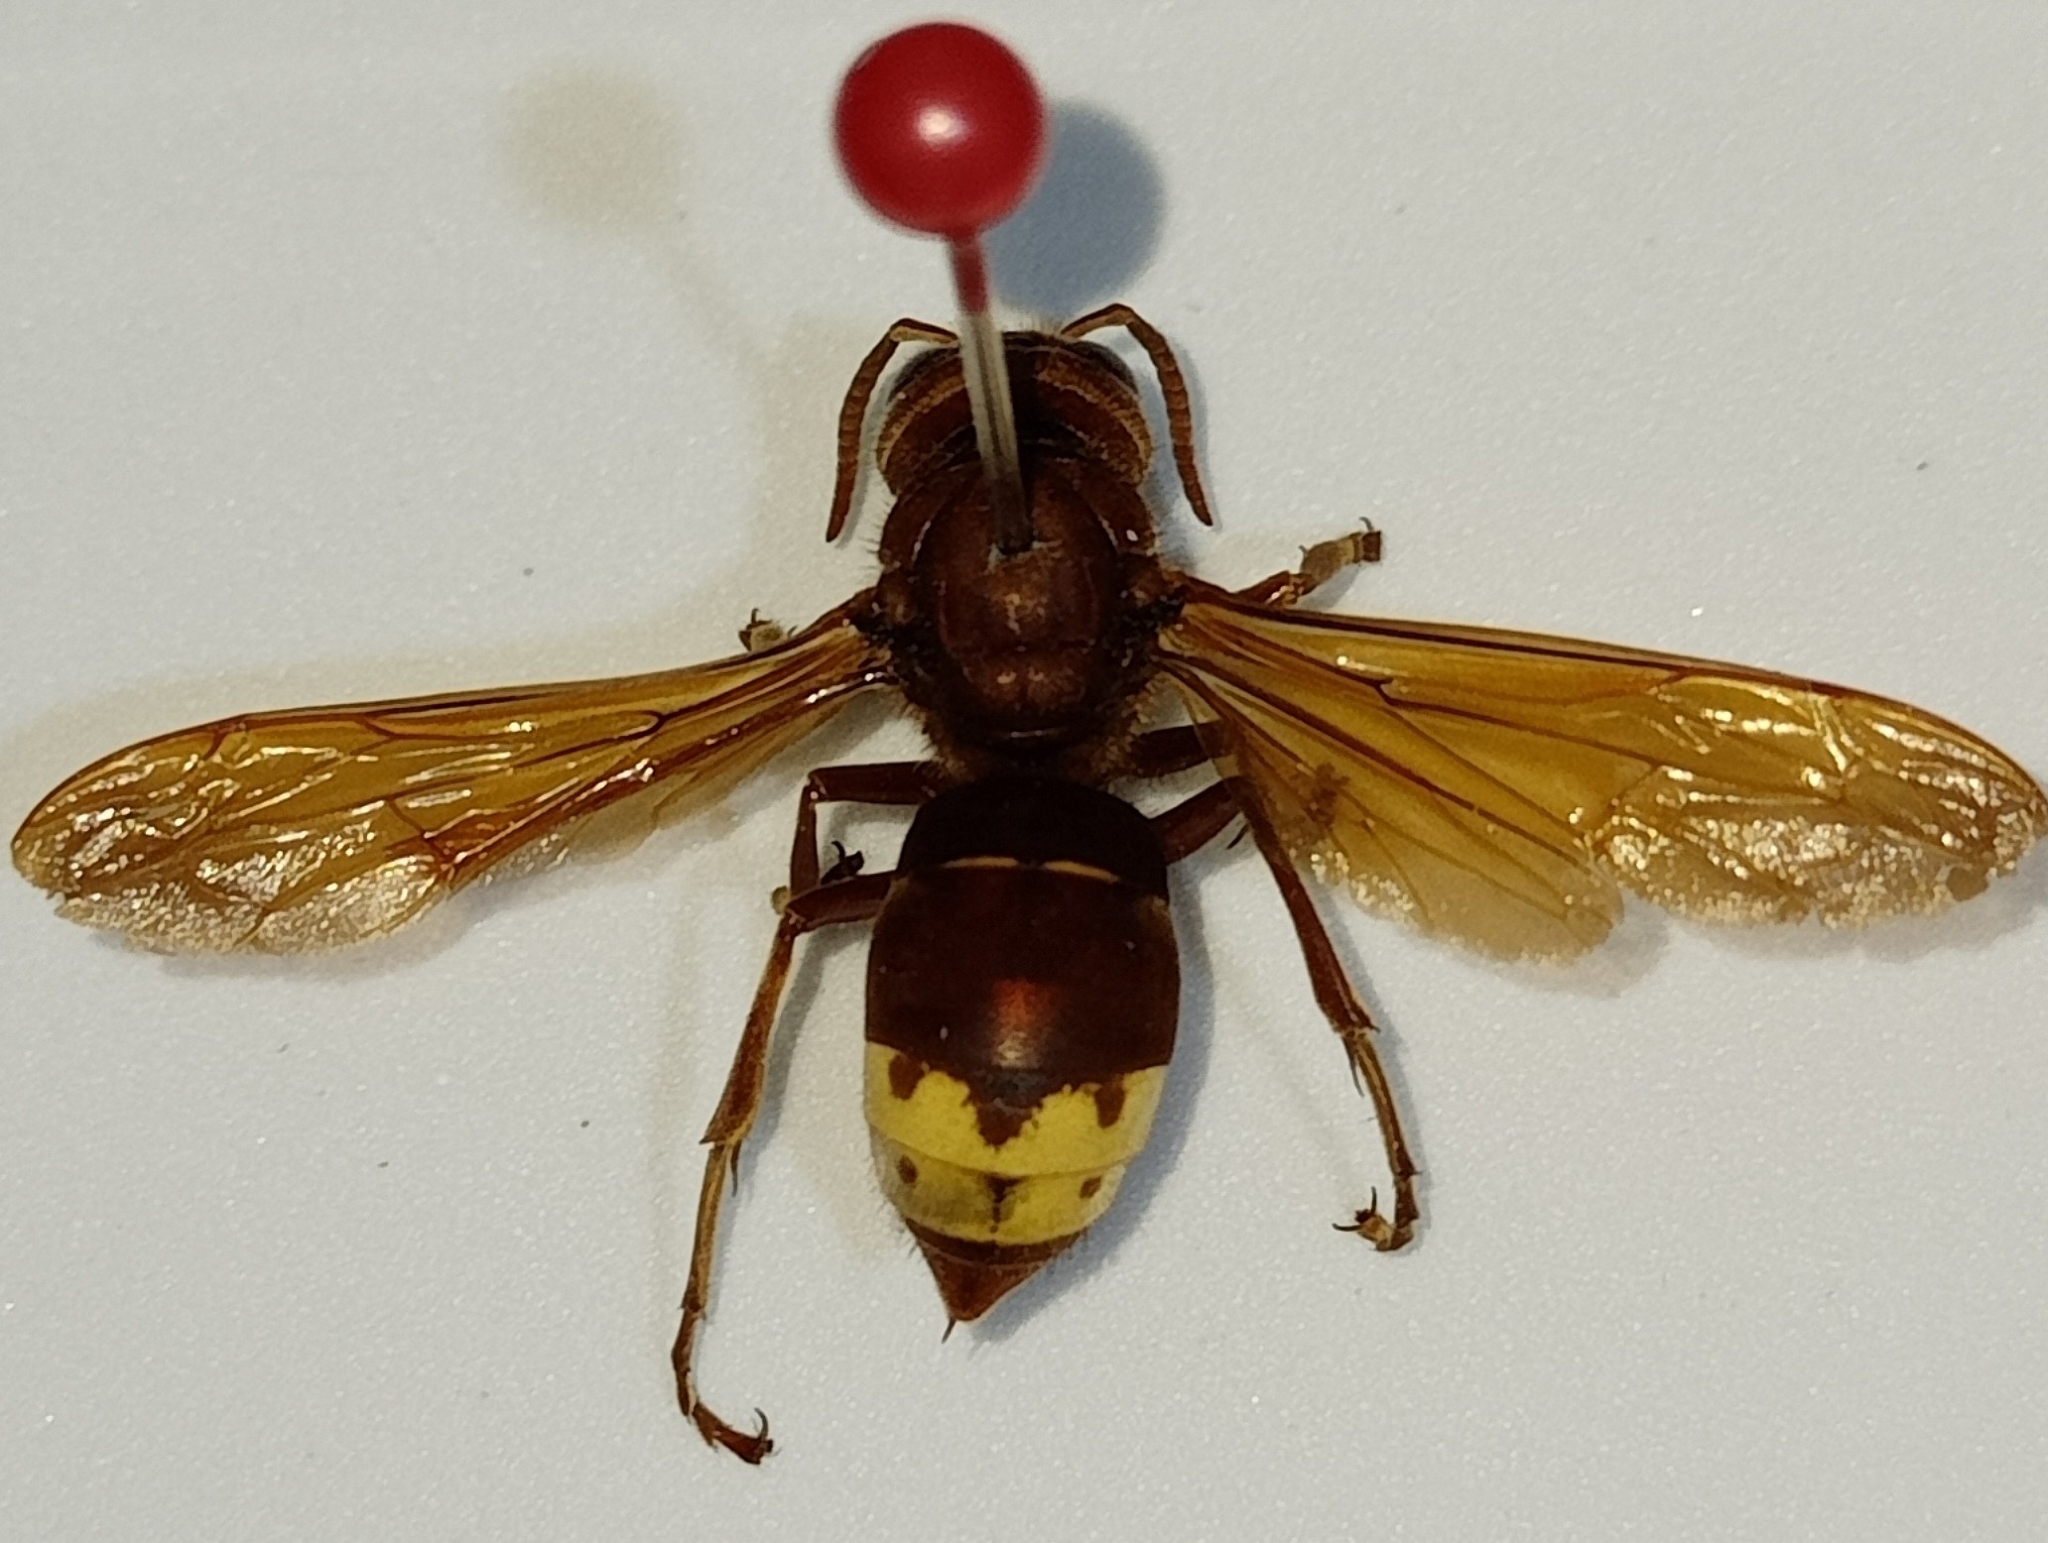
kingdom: Animalia
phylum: Arthropoda
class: Insecta
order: Hymenoptera
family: Vespidae
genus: Vespa
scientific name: Vespa orientalis
